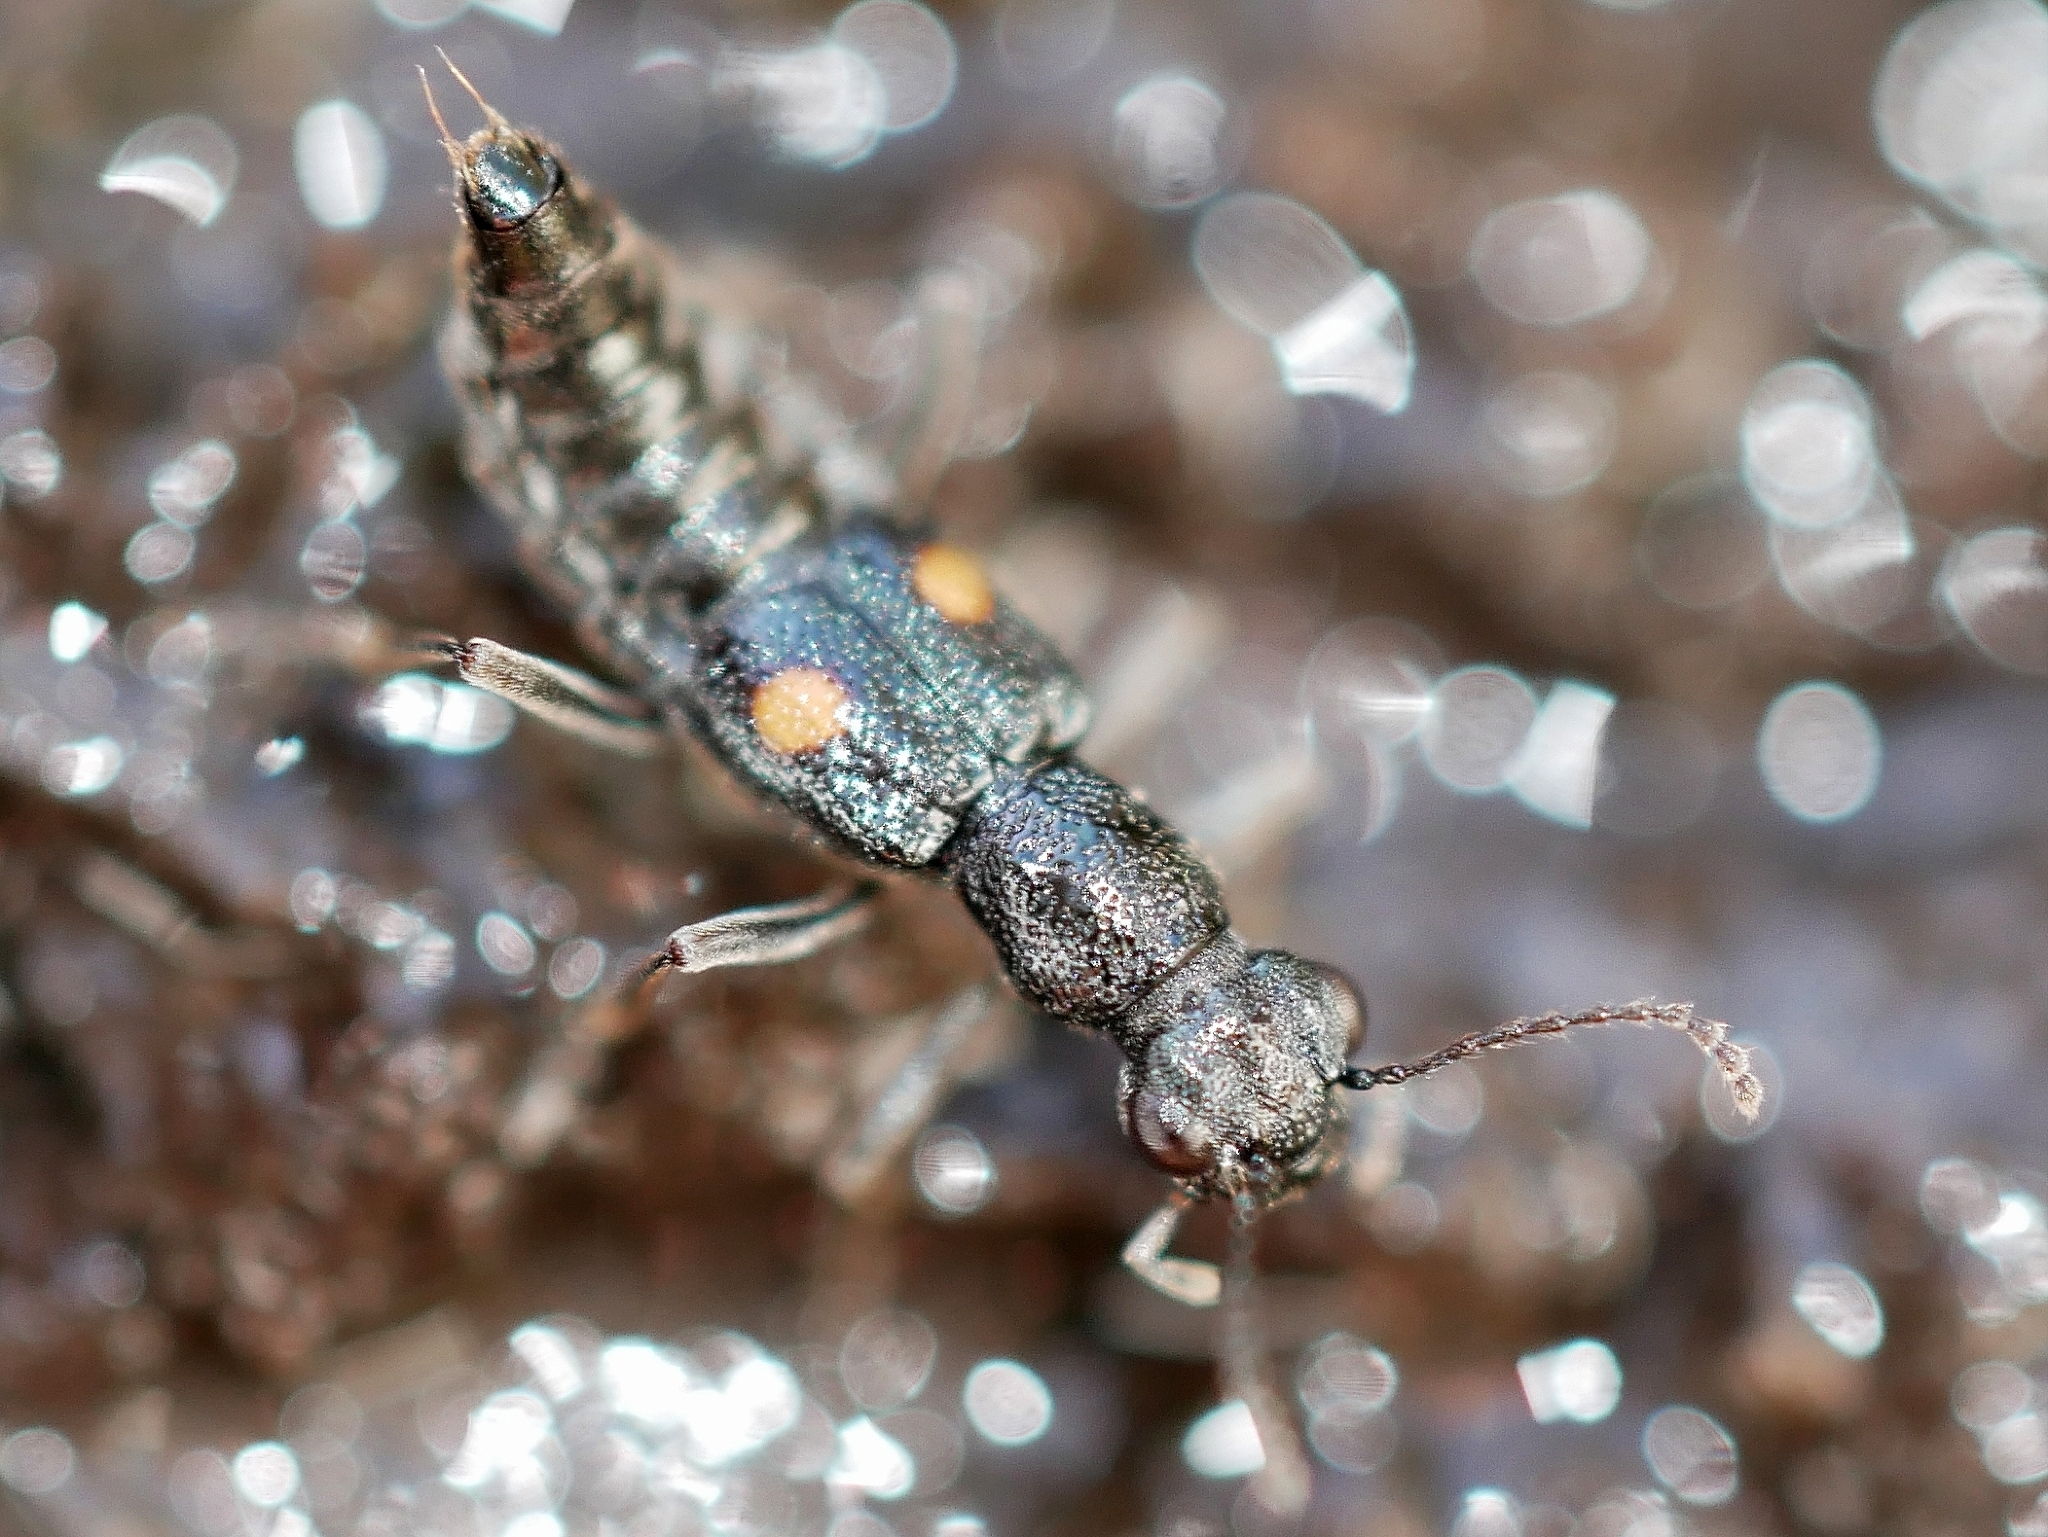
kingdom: Animalia
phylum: Arthropoda
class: Insecta
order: Coleoptera
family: Staphylinidae
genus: Dianous
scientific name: Dianous nitidulus
